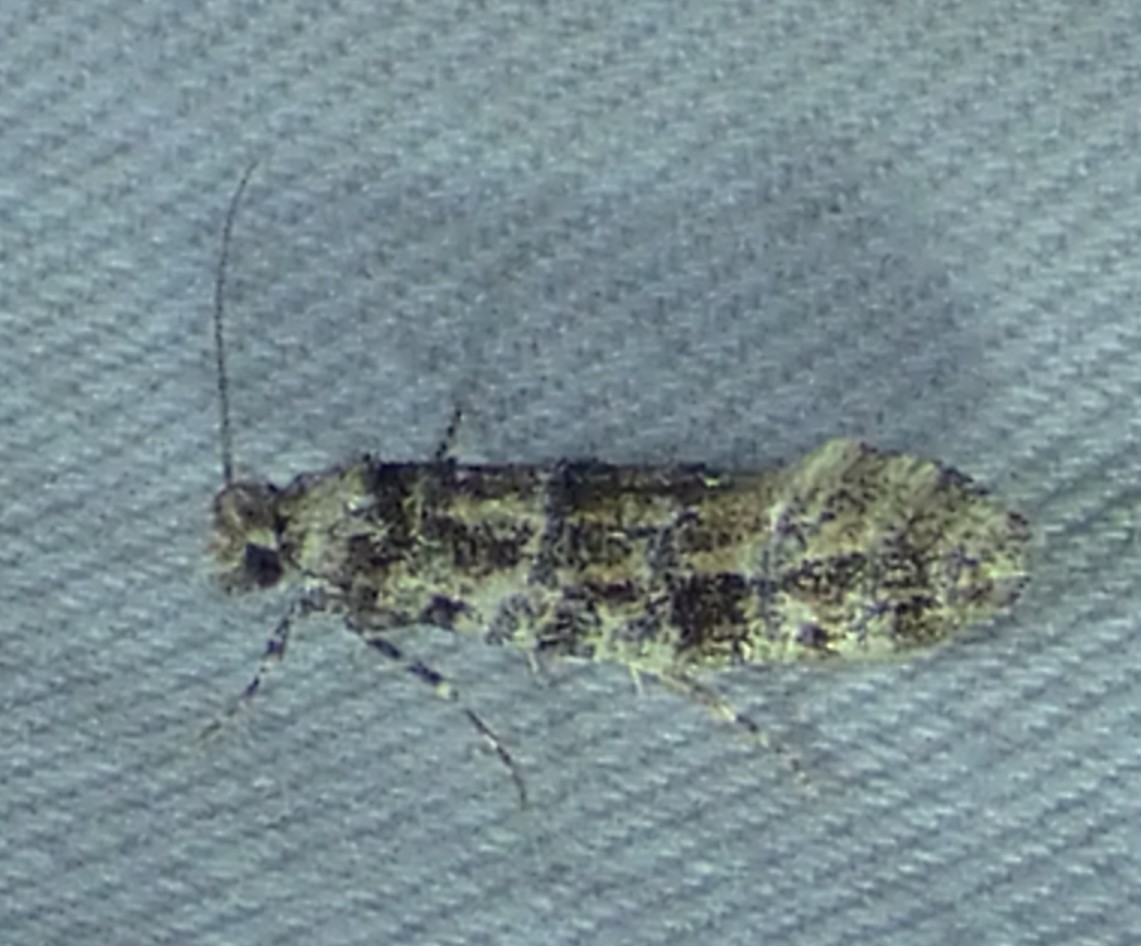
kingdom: Animalia
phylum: Arthropoda
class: Insecta
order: Lepidoptera
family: Tineidae
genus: Xylesthia
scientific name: Xylesthia pruniramiella
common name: Clemens' bark moth
